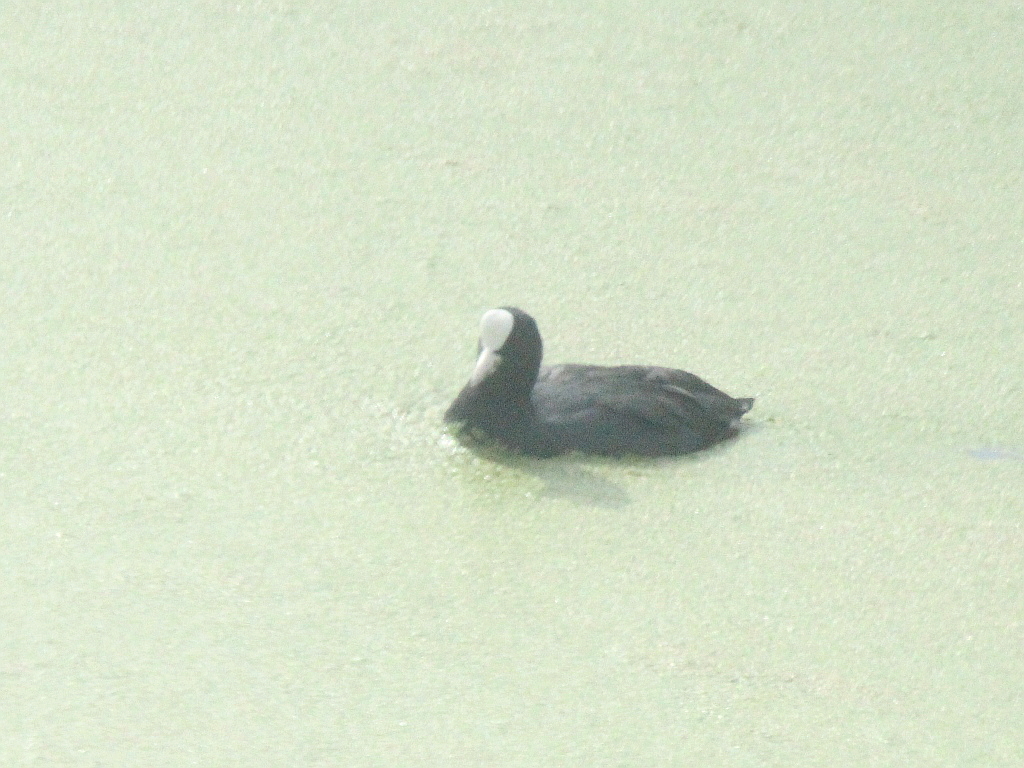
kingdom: Animalia
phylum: Chordata
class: Aves
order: Gruiformes
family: Rallidae
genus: Fulica
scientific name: Fulica atra
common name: Eurasian coot
